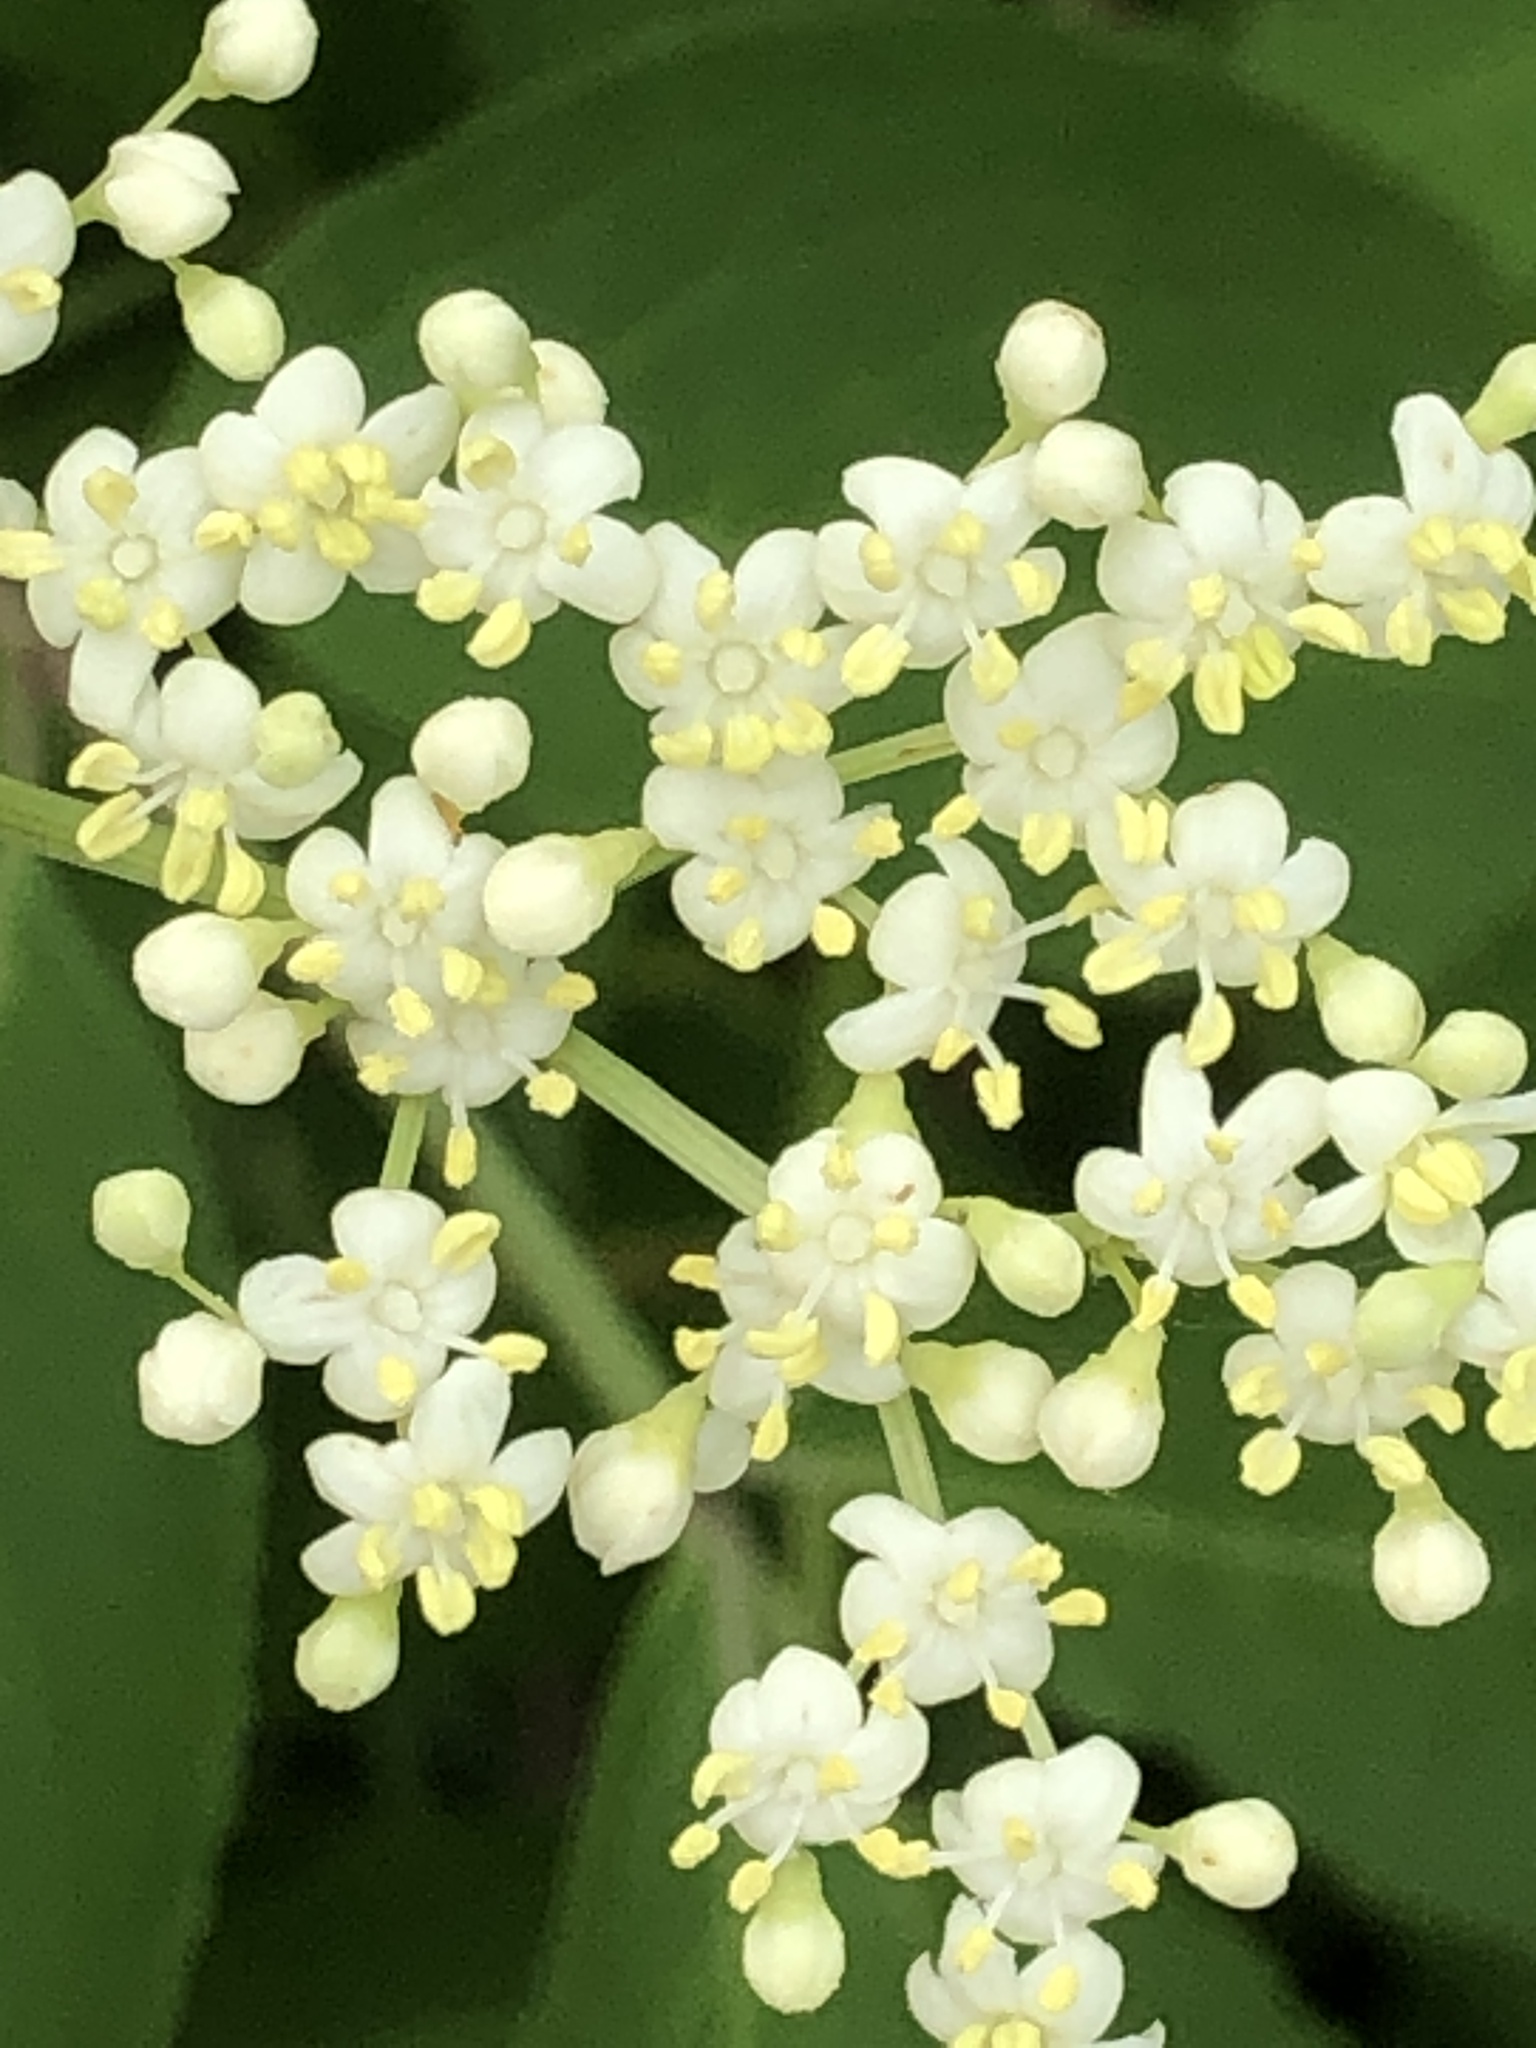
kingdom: Plantae
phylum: Tracheophyta
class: Magnoliopsida
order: Dipsacales
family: Viburnaceae
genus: Sambucus
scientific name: Sambucus canadensis
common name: American elder
